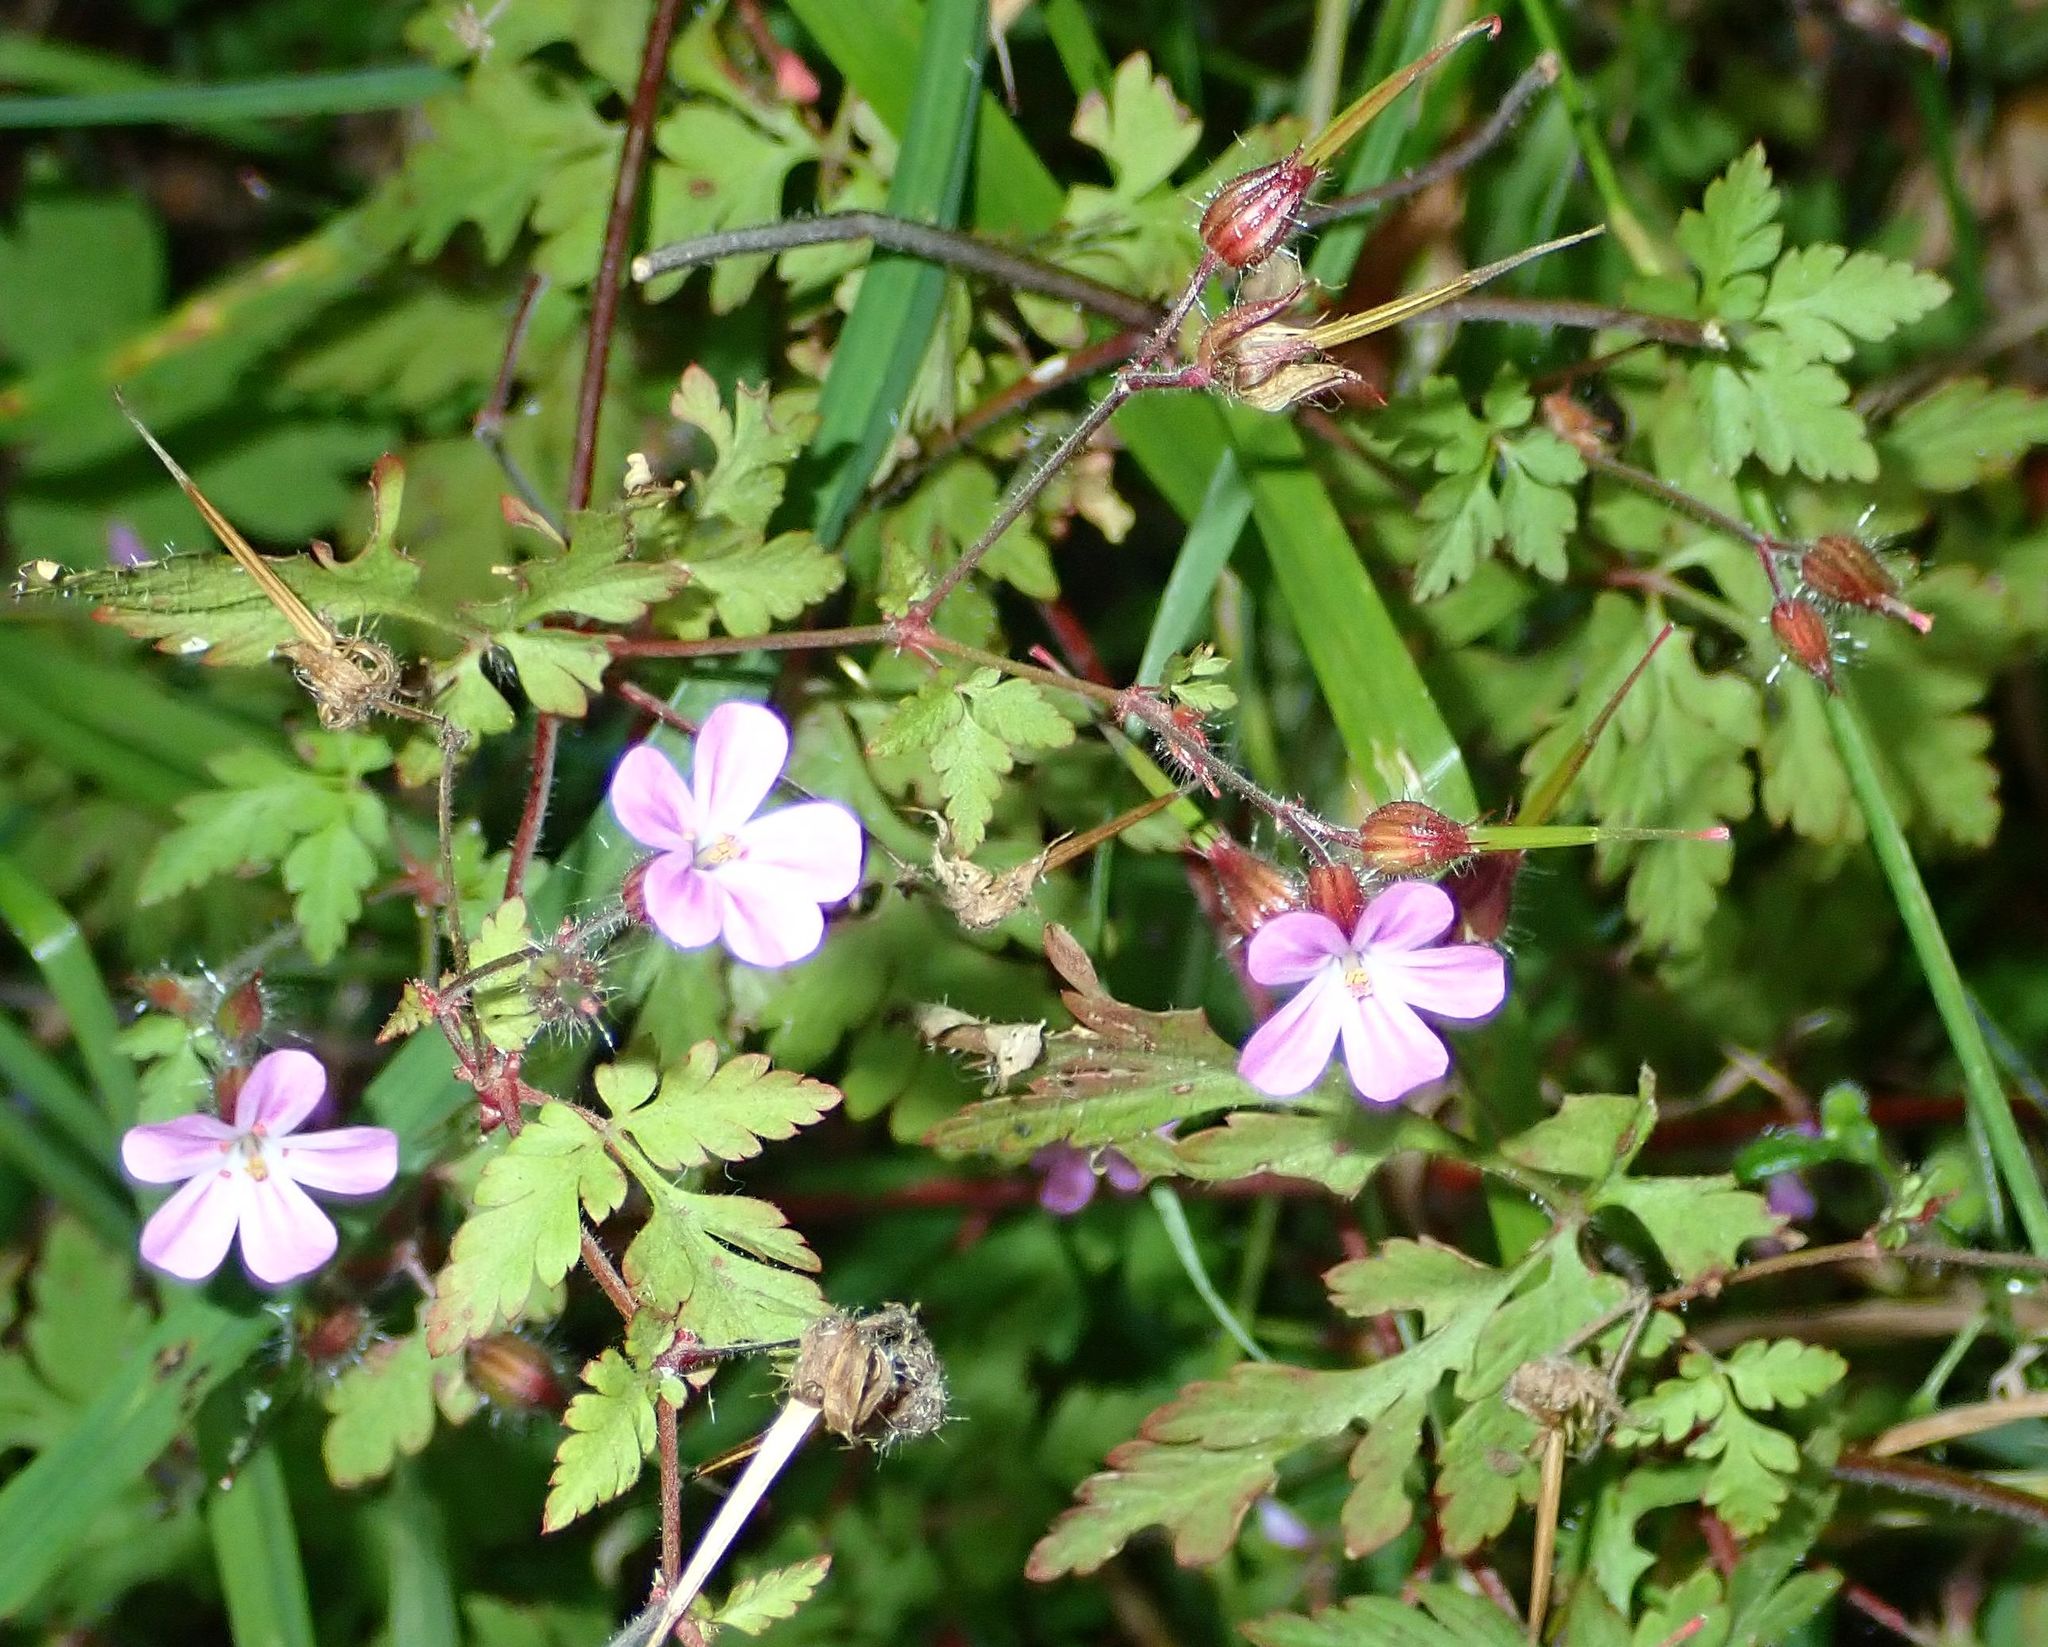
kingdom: Plantae
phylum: Tracheophyta
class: Magnoliopsida
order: Geraniales
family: Geraniaceae
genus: Geranium
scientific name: Geranium robertianum
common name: Herb-robert
